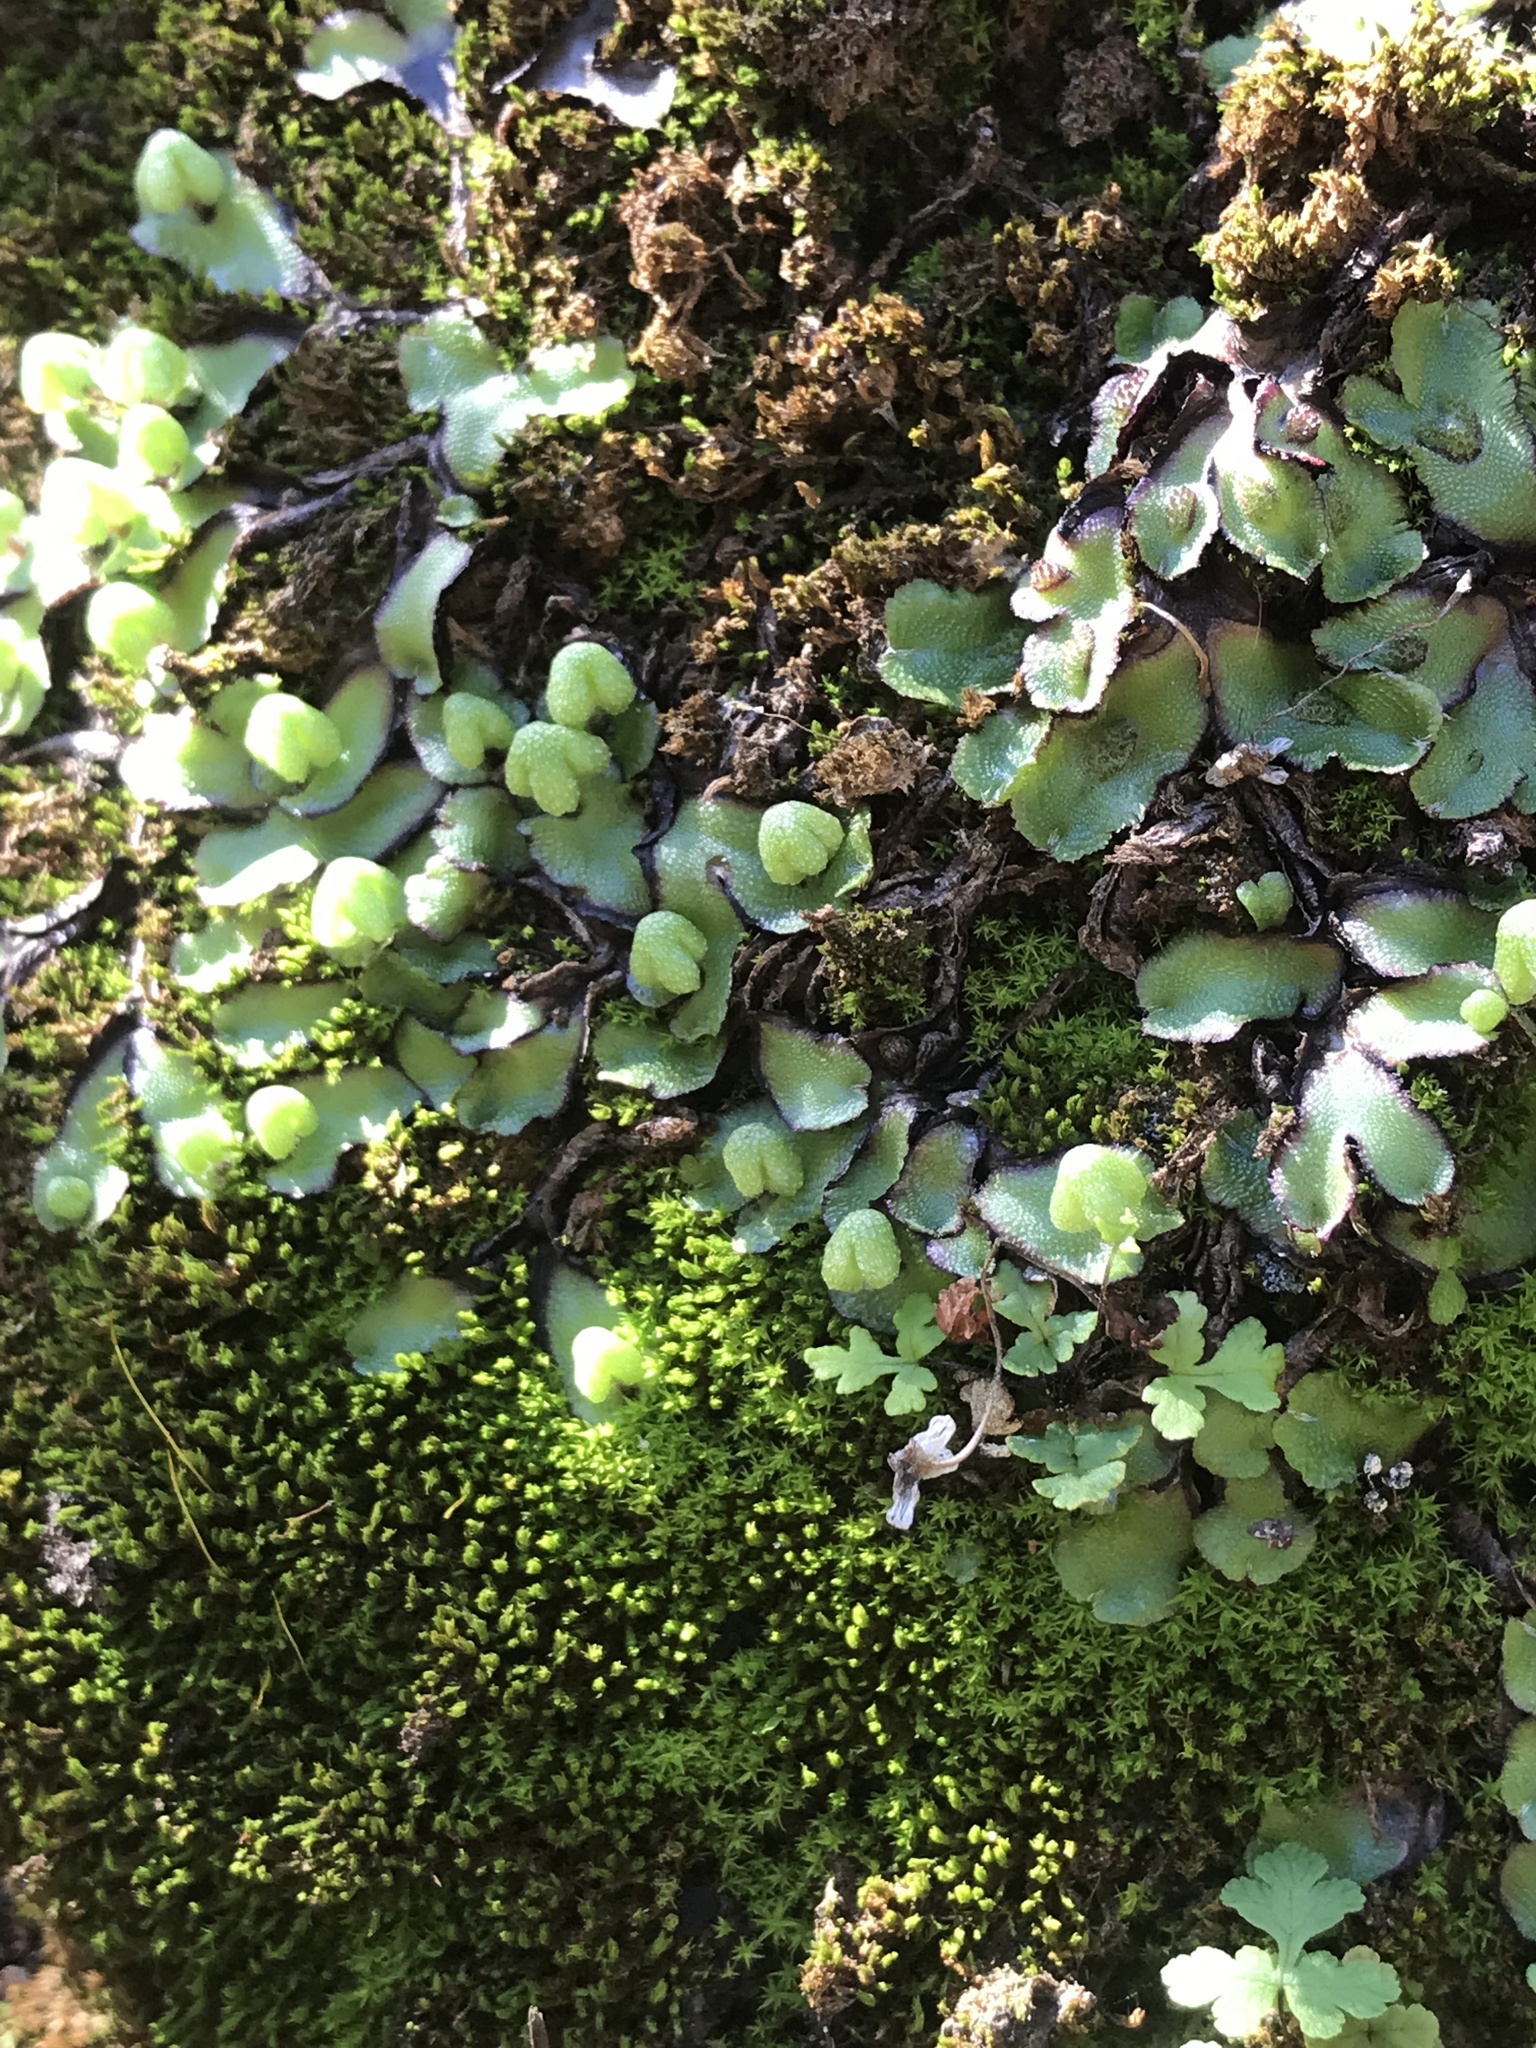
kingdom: Plantae
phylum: Marchantiophyta
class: Marchantiopsida
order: Marchantiales
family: Aytoniaceae
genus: Asterella
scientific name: Asterella californica
